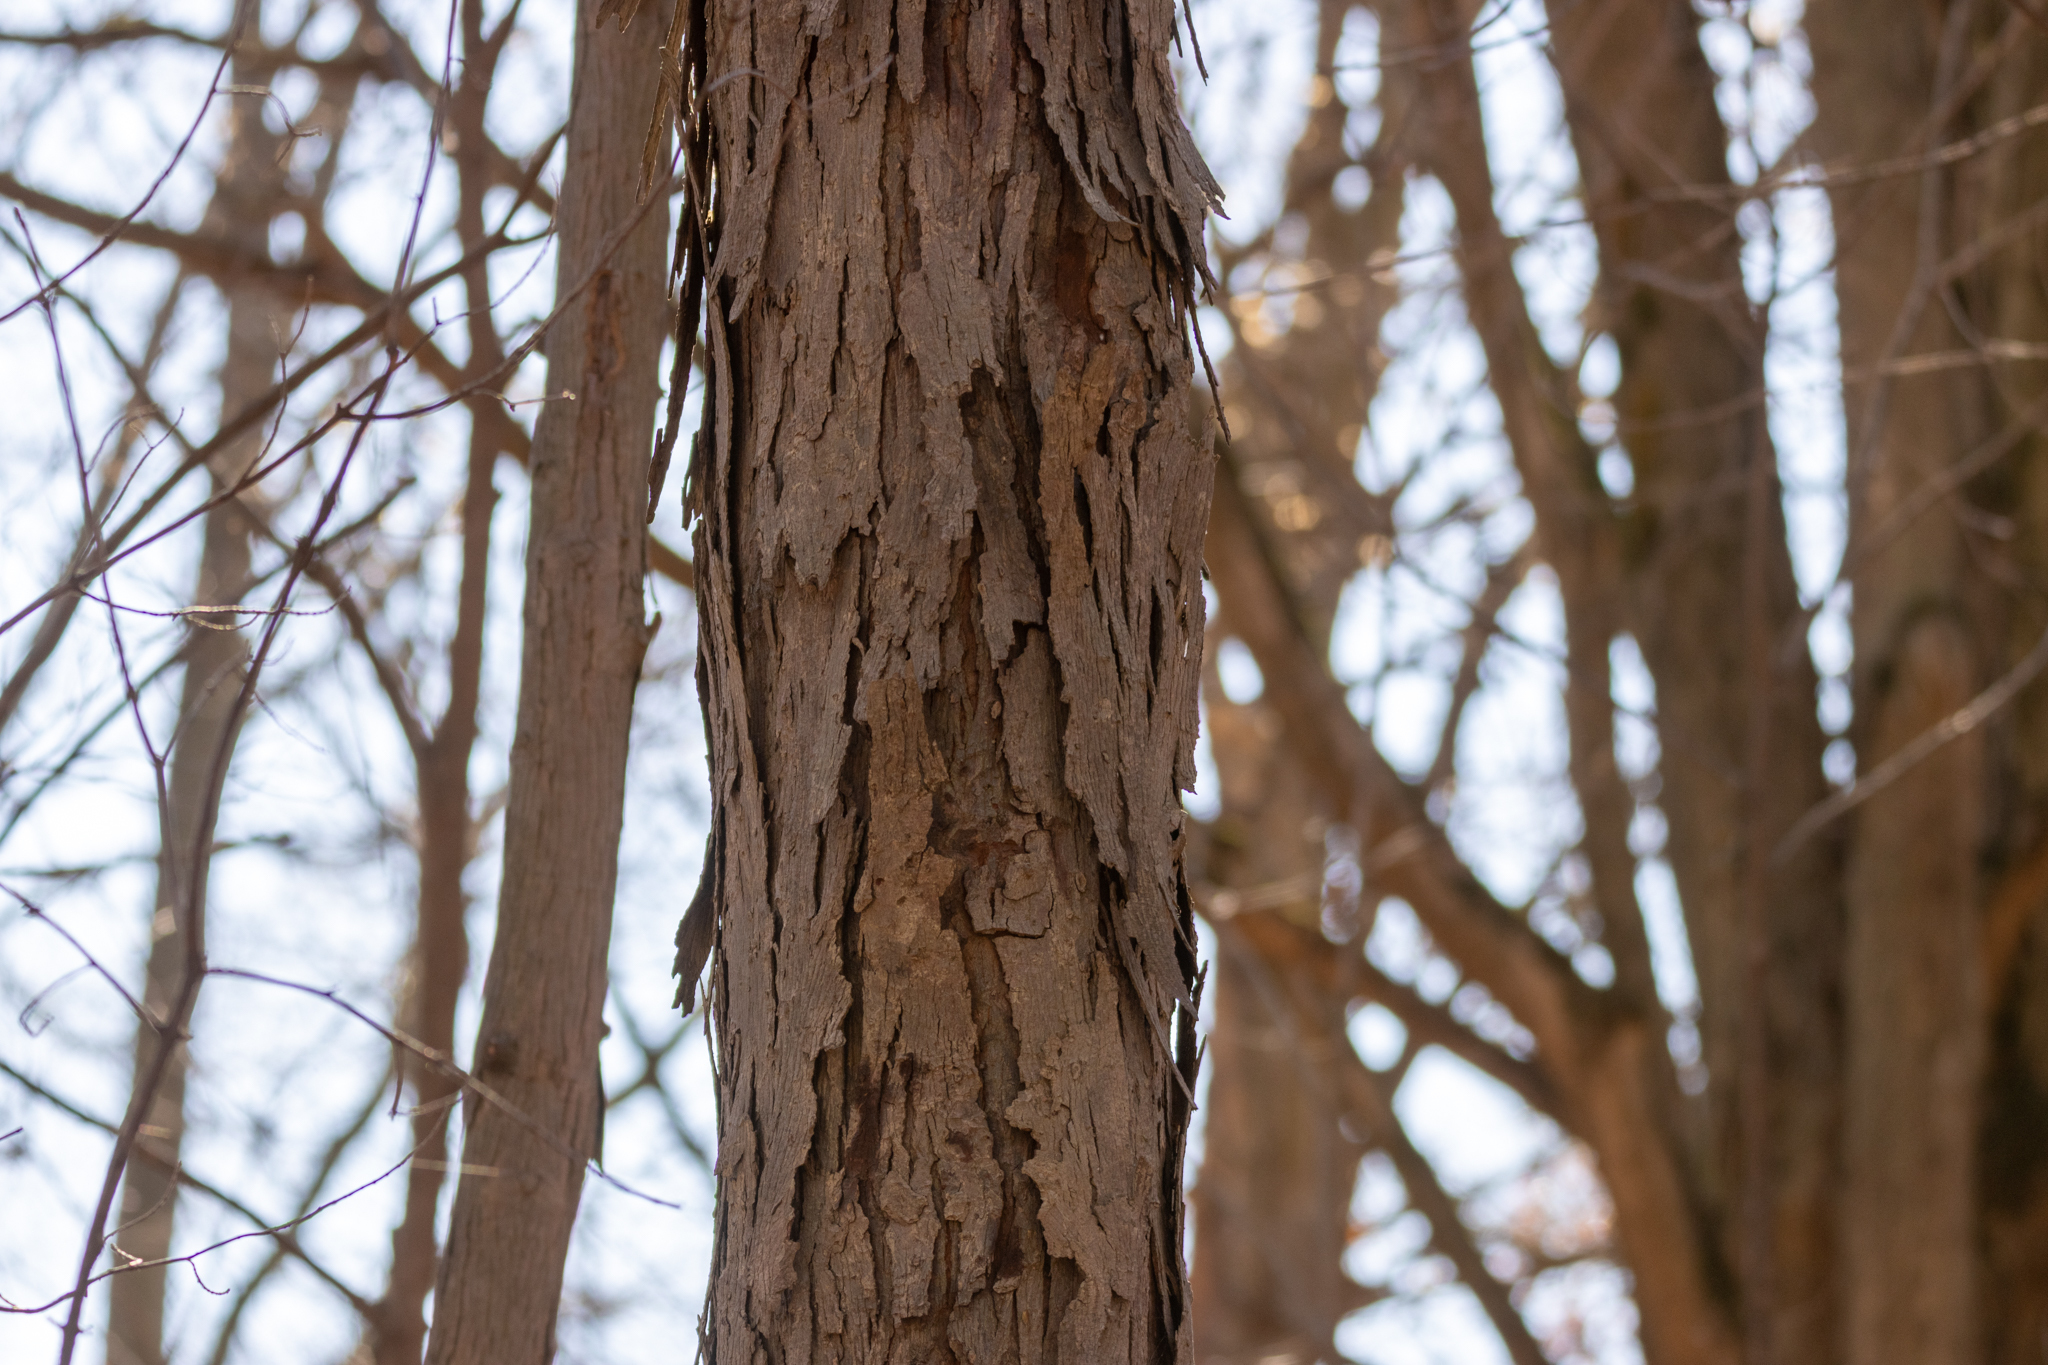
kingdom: Plantae
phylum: Tracheophyta
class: Magnoliopsida
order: Fagales
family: Juglandaceae
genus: Carya
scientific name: Carya ovata
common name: Shagbark hickory
